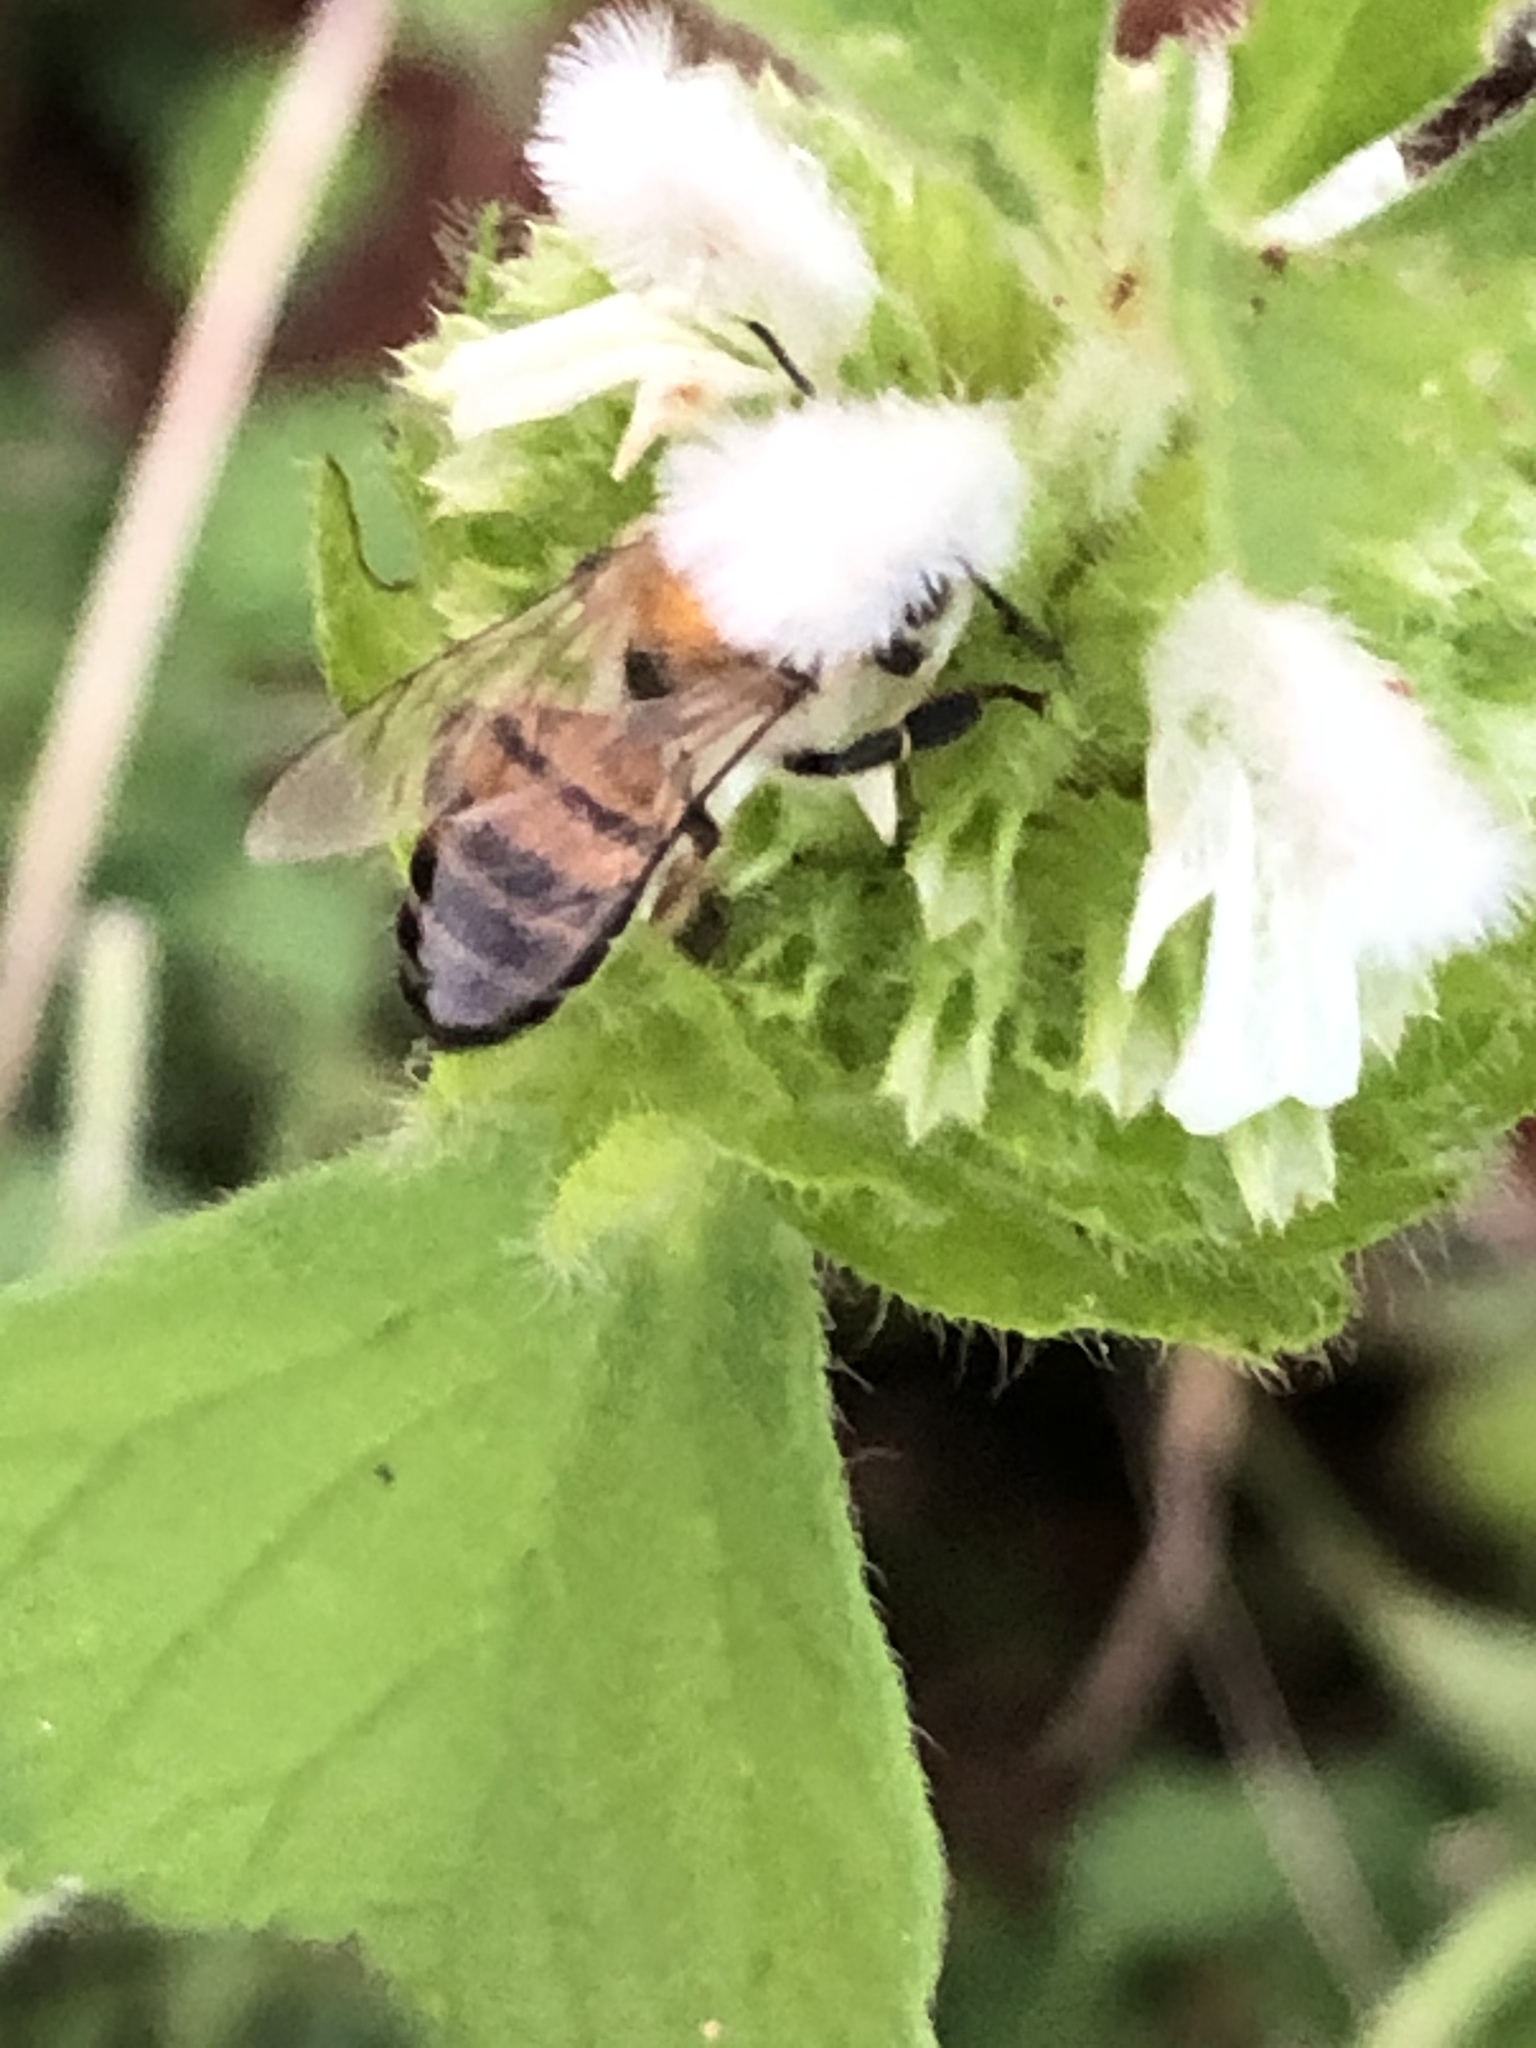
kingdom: Animalia
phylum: Arthropoda
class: Insecta
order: Hymenoptera
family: Apidae
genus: Apis
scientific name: Apis mellifera
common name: Honey bee
